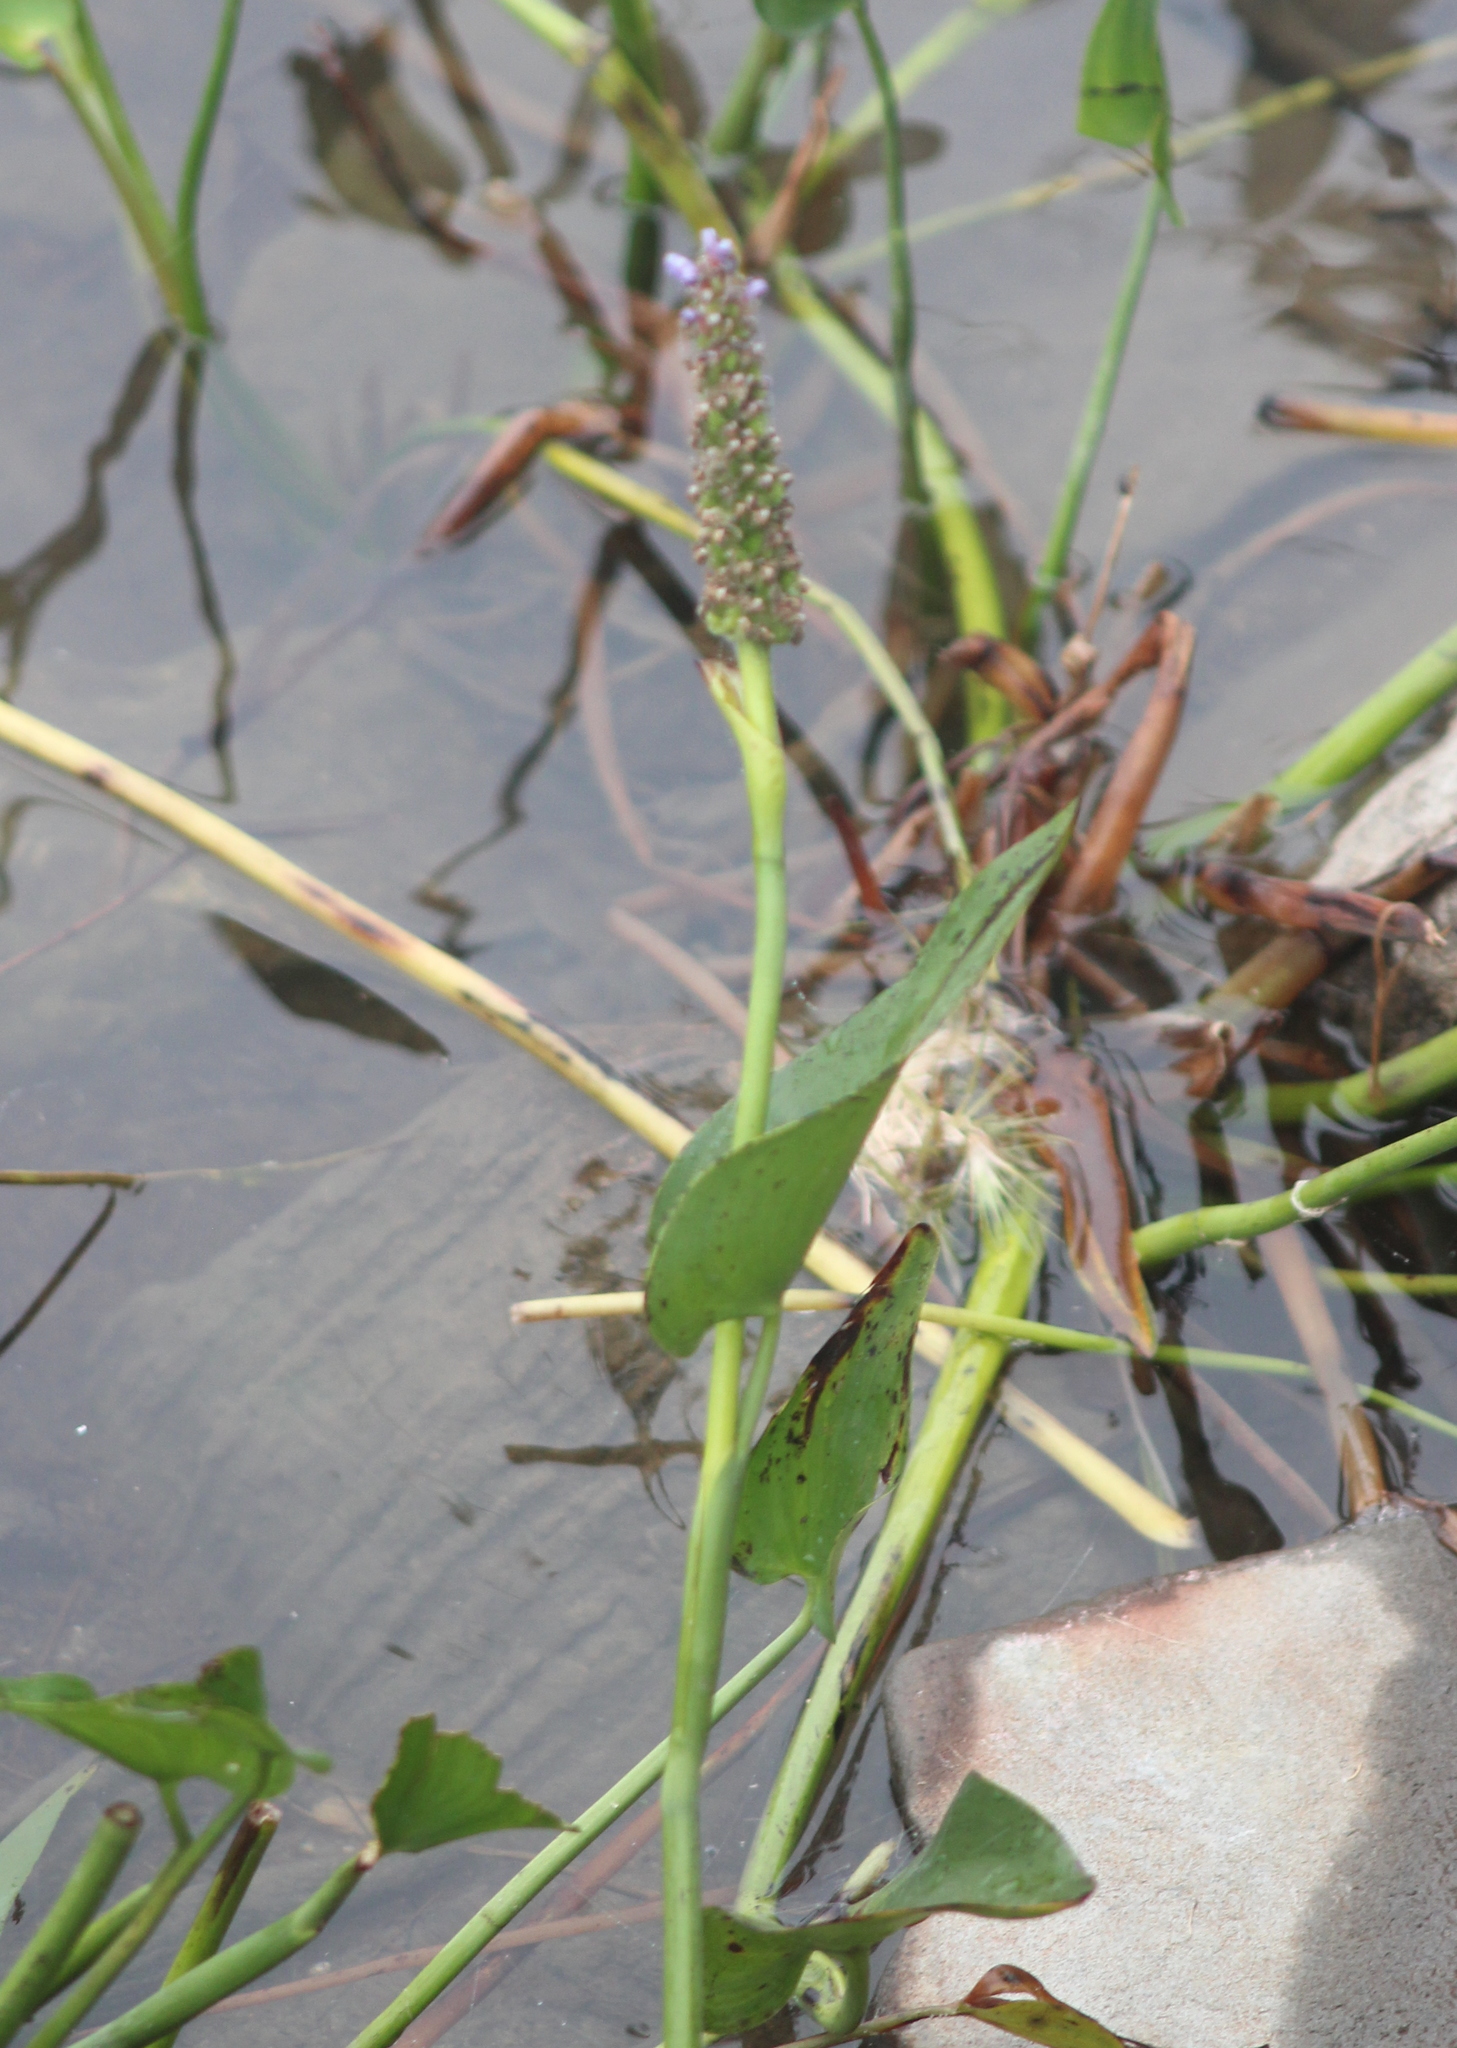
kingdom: Plantae
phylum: Tracheophyta
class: Liliopsida
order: Commelinales
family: Pontederiaceae
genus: Pontederia
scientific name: Pontederia cordata
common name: Pickerelweed
